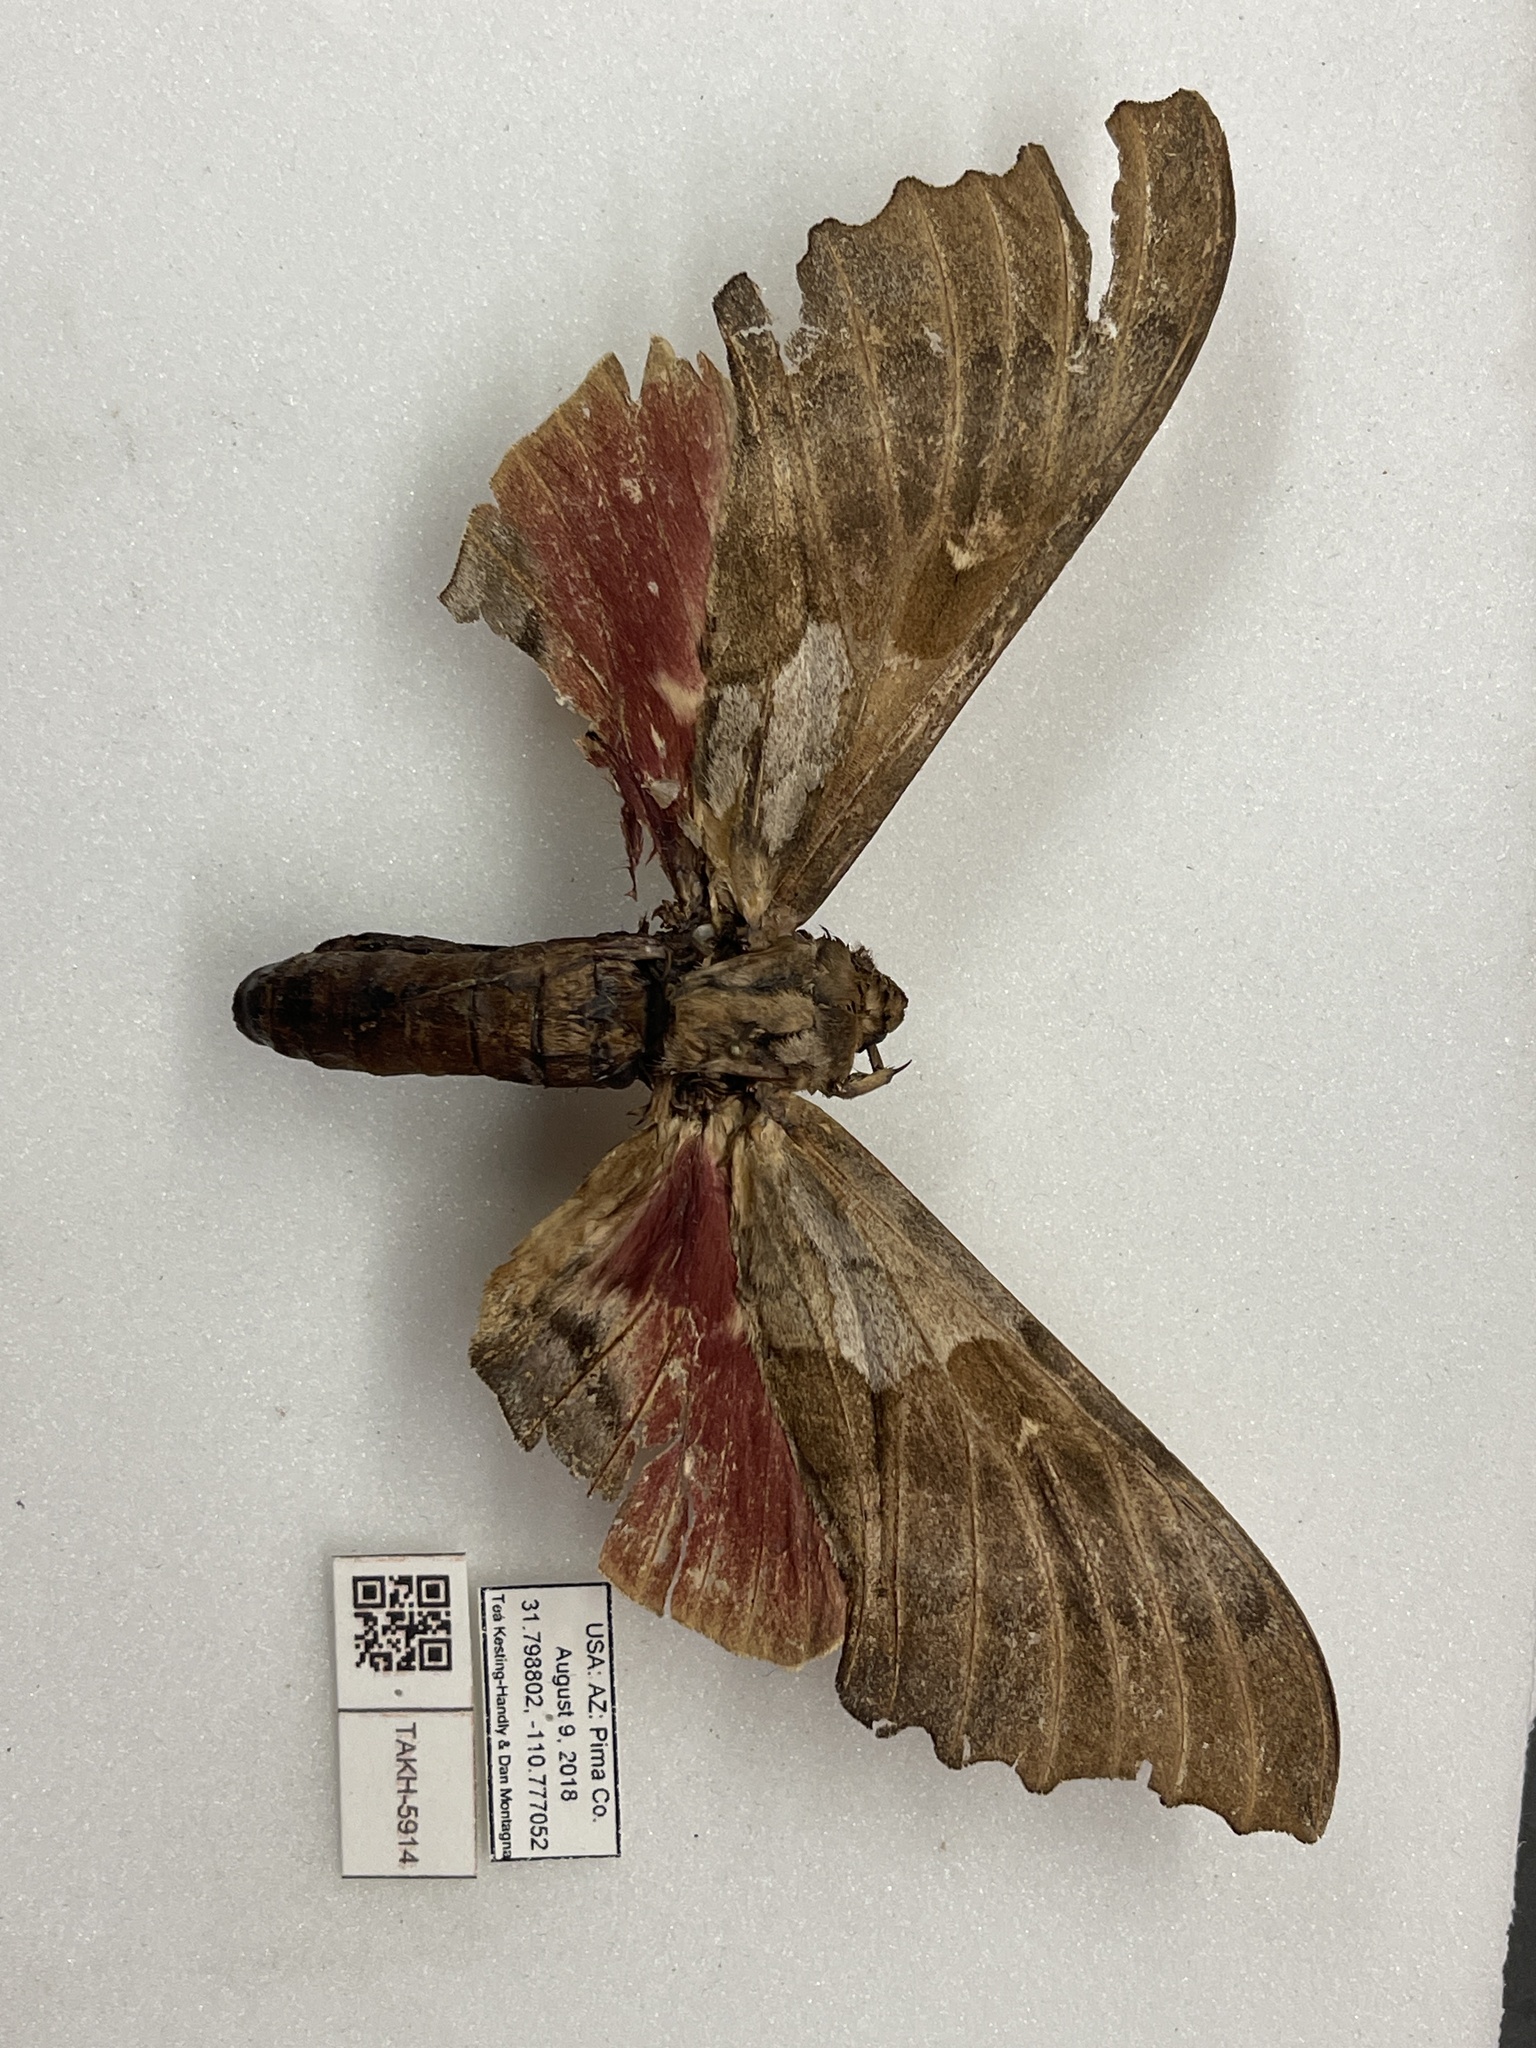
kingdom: Animalia
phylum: Arthropoda
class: Insecta
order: Lepidoptera
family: Sphingidae
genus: Pachysphinx
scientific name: Pachysphinx occidentalis
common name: Western poplar sphinx
